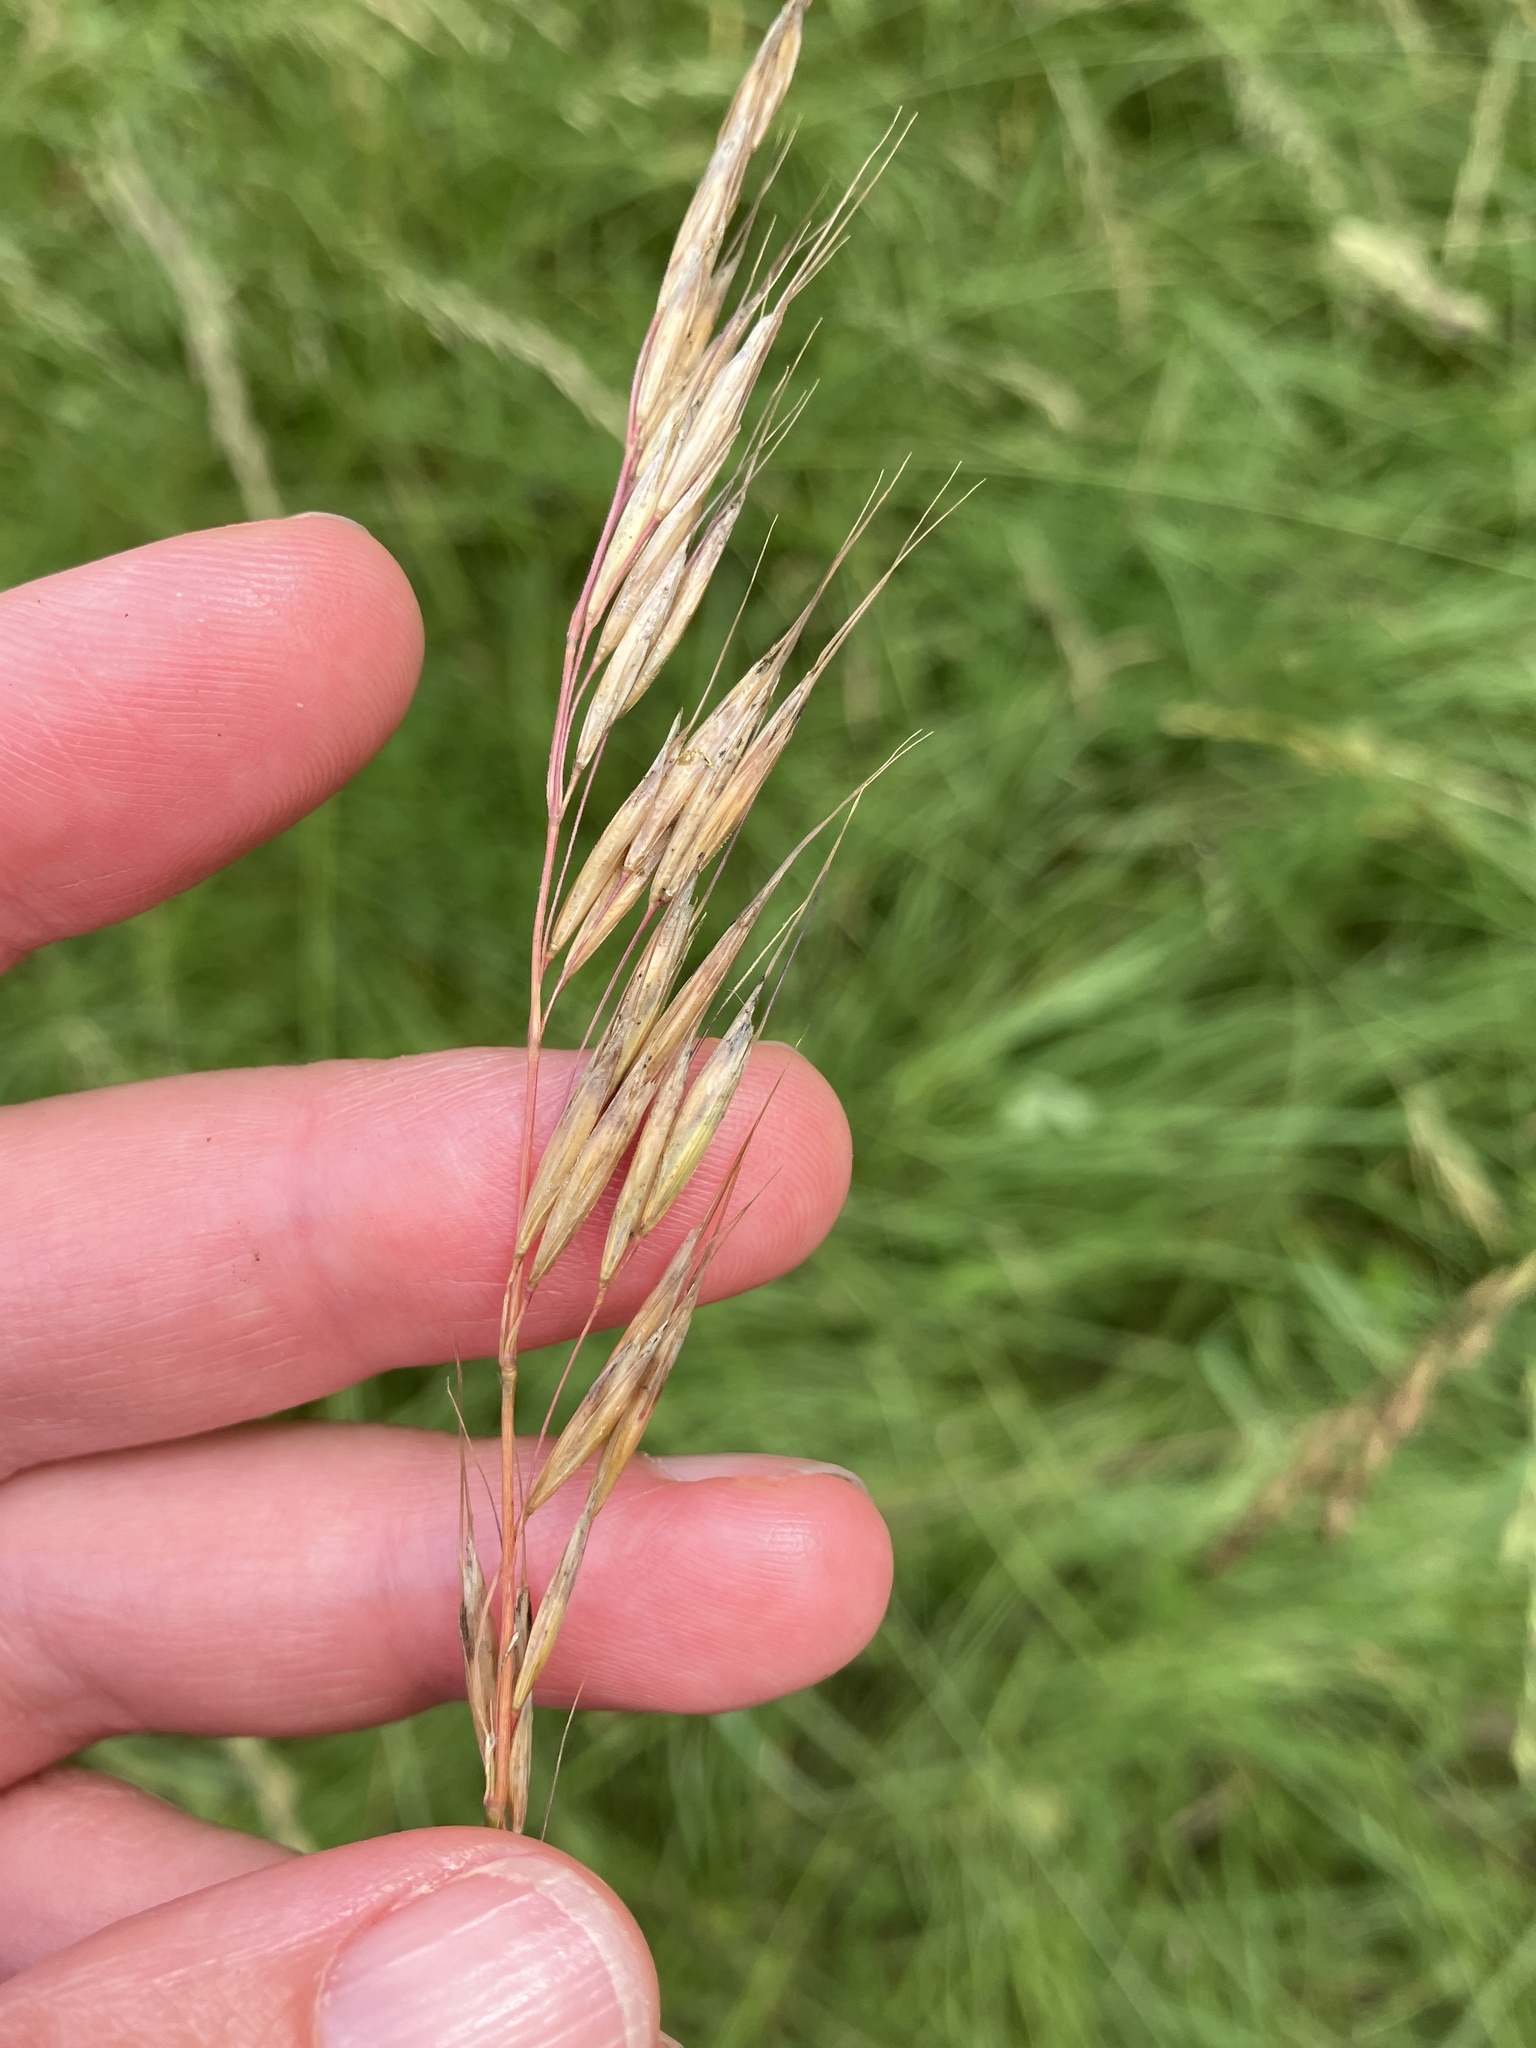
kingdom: Plantae
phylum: Tracheophyta
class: Liliopsida
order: Poales
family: Poaceae
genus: Avenula
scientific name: Avenula pubescens
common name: Downy alpine oatgrass
